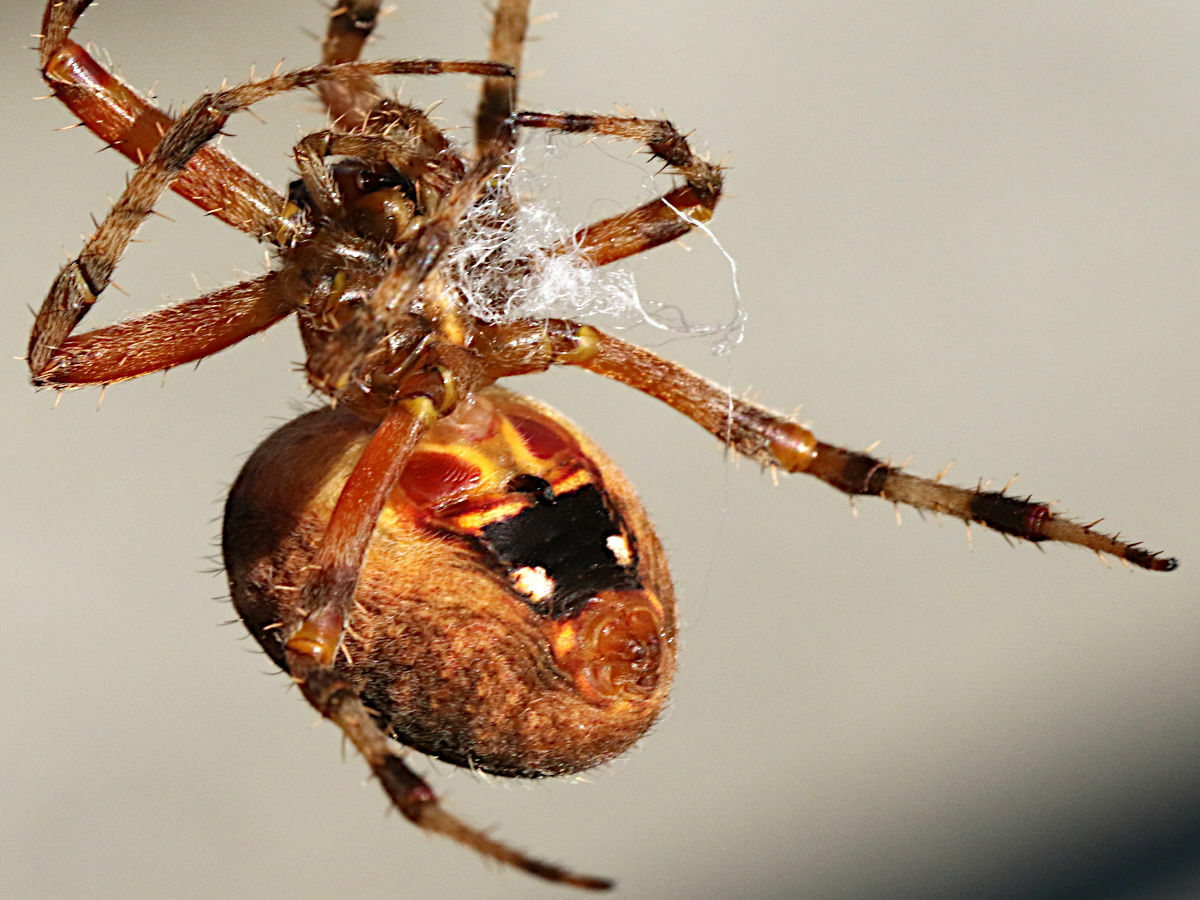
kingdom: Animalia
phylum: Arthropoda
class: Arachnida
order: Araneae
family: Araneidae
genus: Neoscona
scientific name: Neoscona crucifera
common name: Spotted orbweaver
